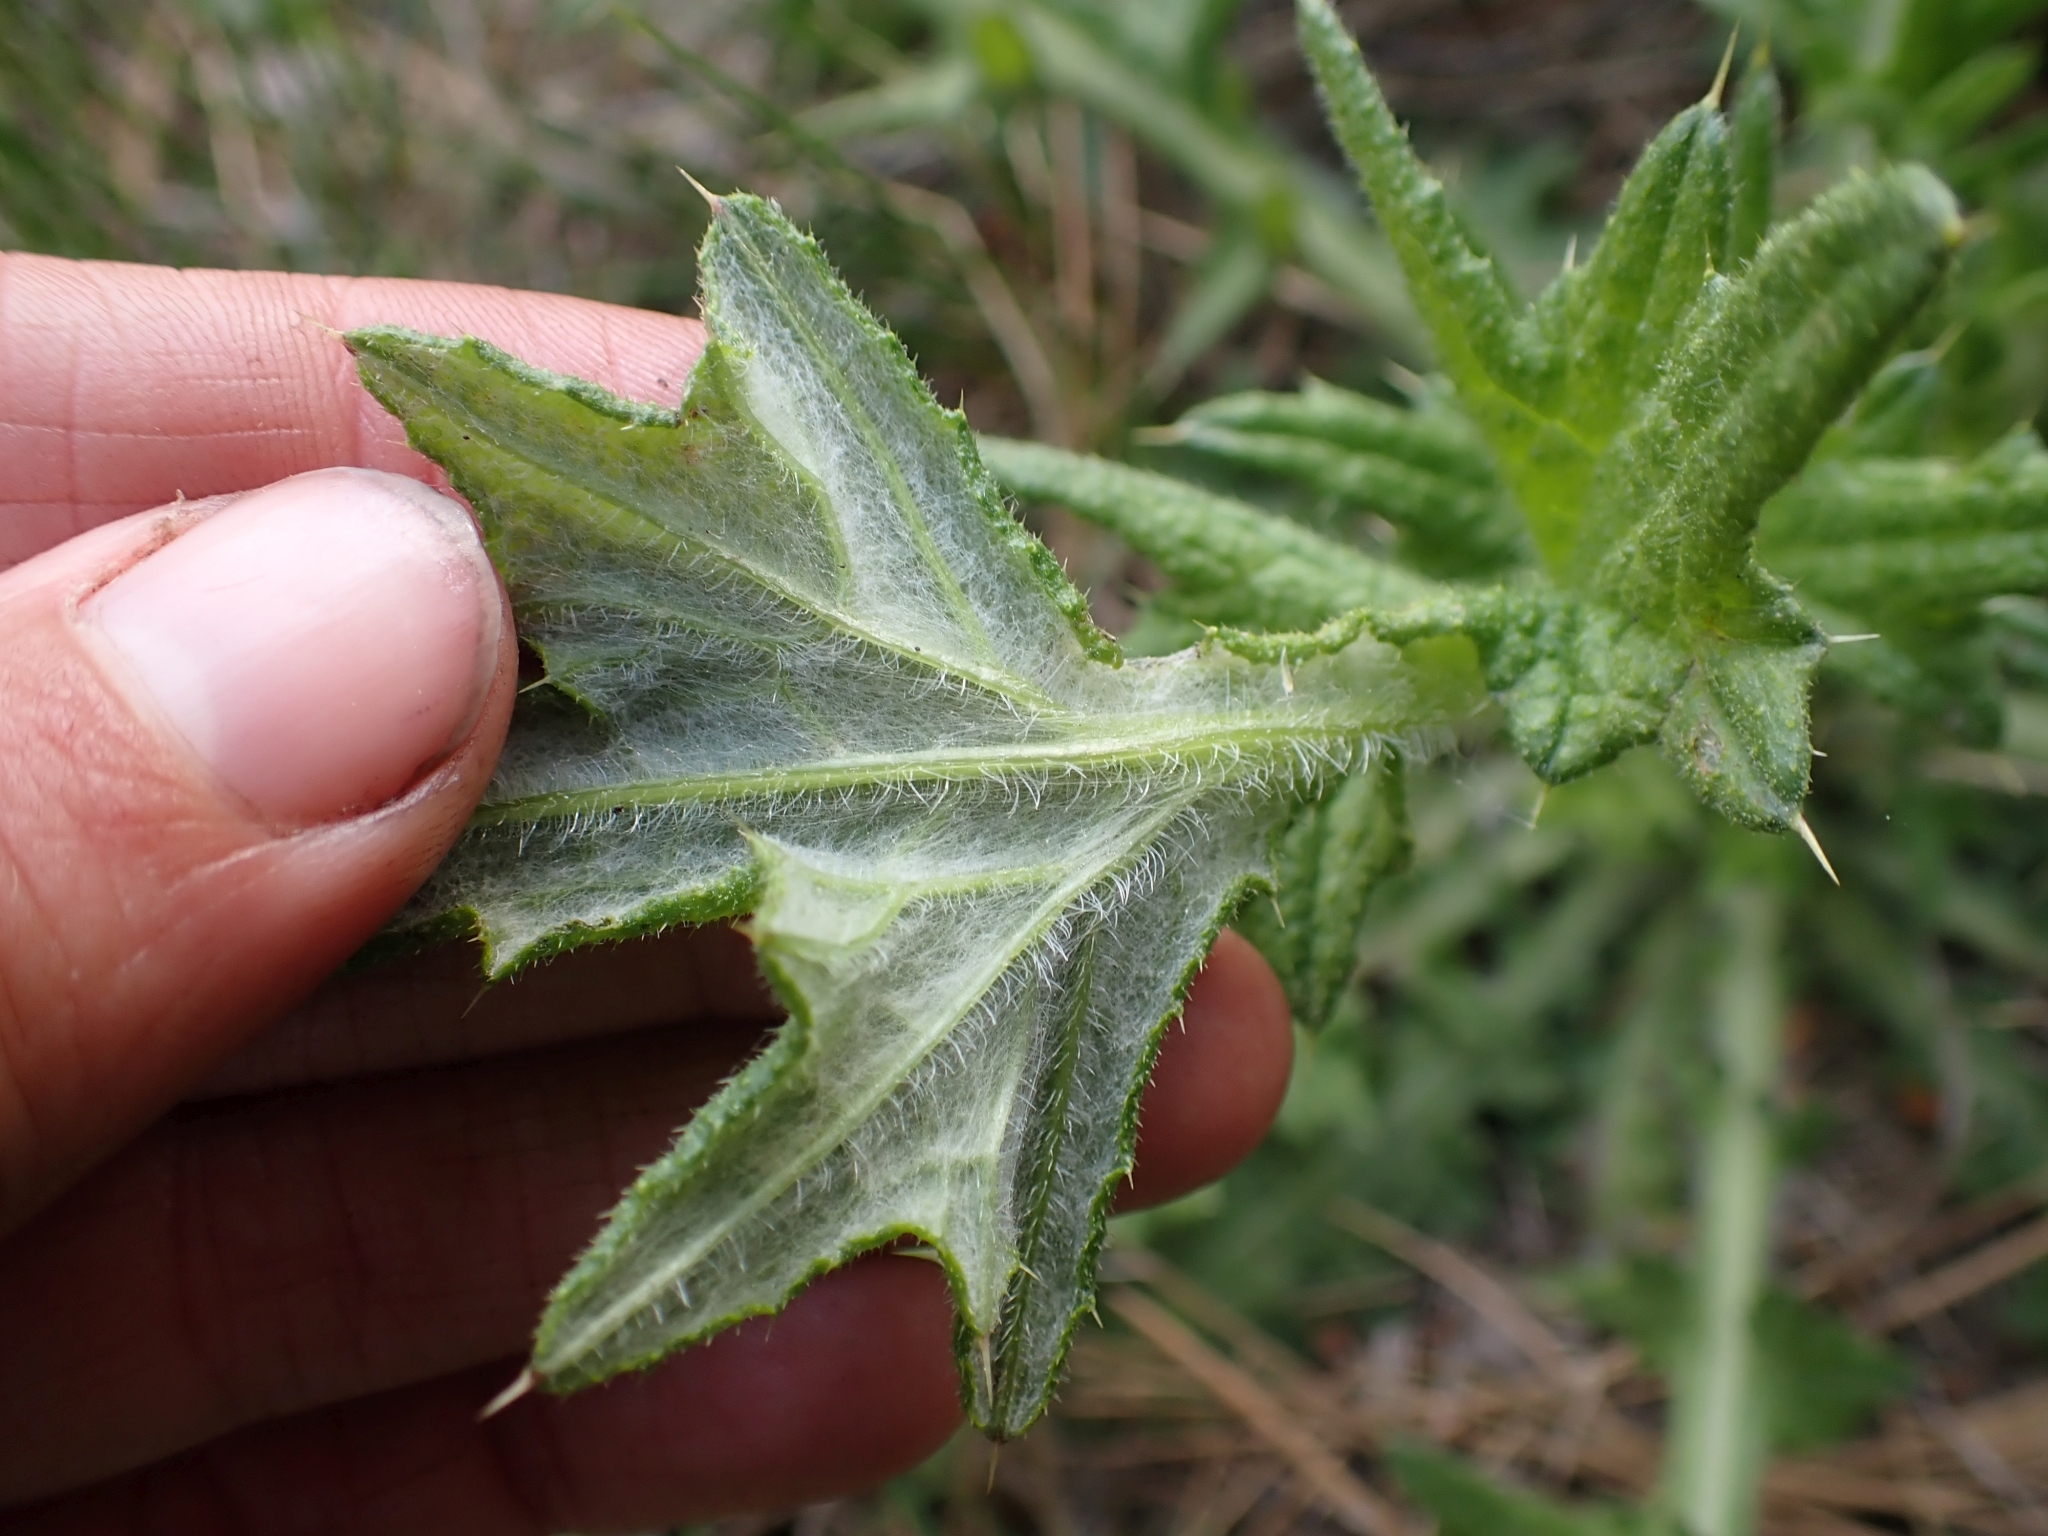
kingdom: Plantae
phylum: Tracheophyta
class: Magnoliopsida
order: Asterales
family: Asteraceae
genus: Cirsium
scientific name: Cirsium vulgare
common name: Bull thistle
